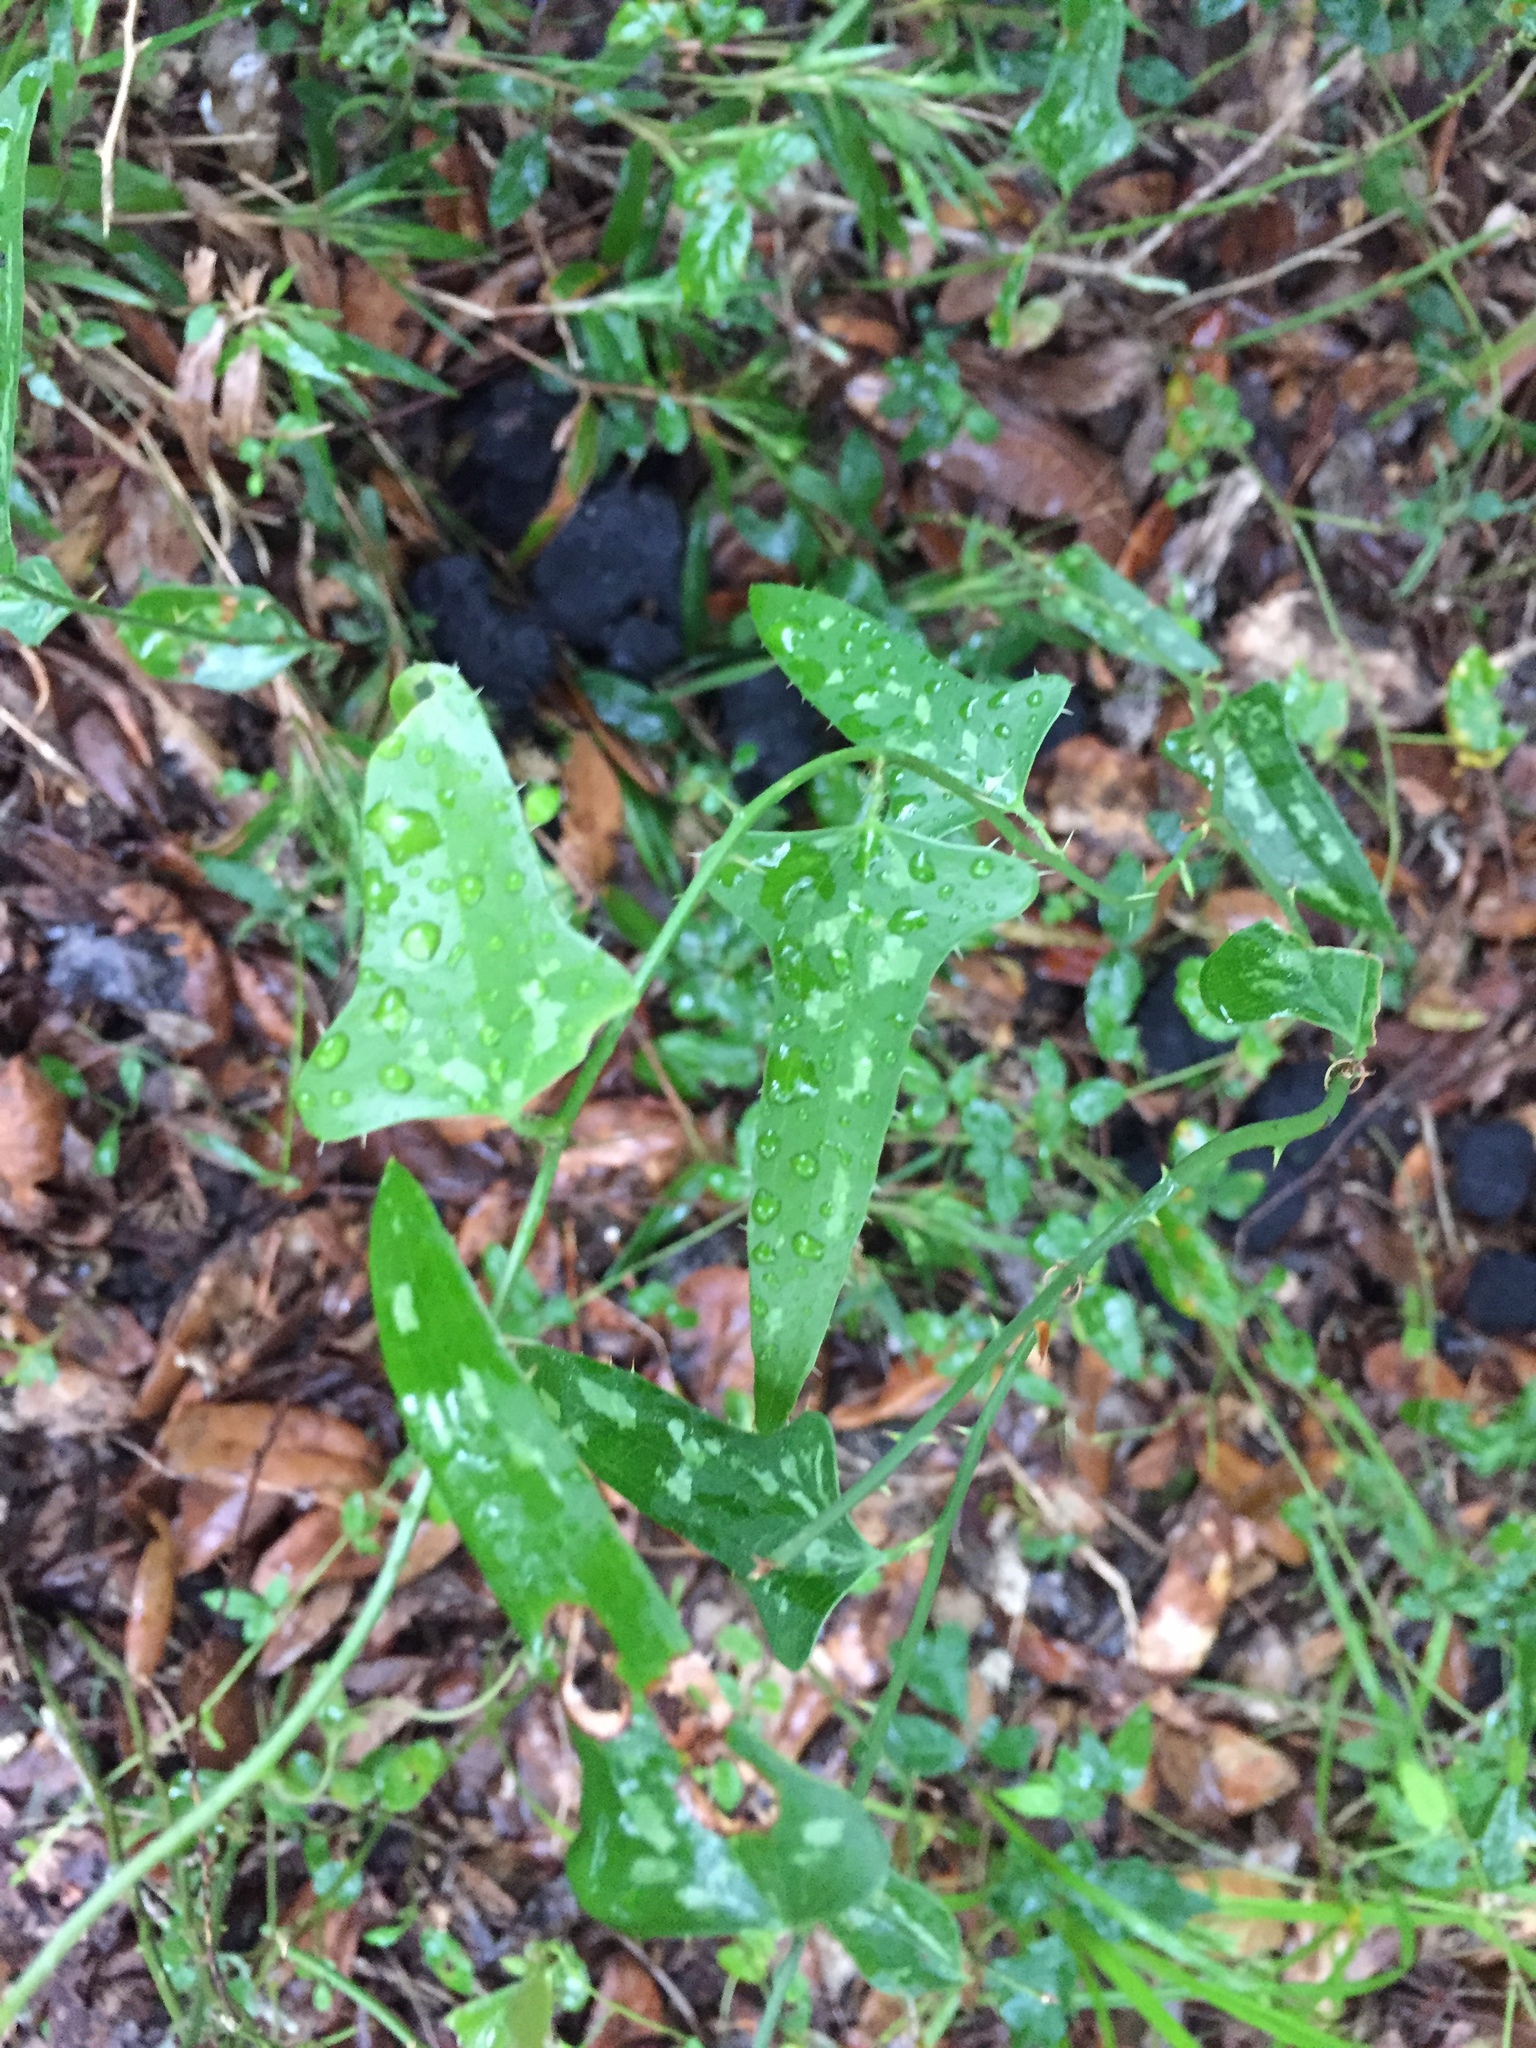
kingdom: Plantae
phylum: Tracheophyta
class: Liliopsida
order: Liliales
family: Smilacaceae
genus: Smilax
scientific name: Smilax bona-nox
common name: Catbrier
